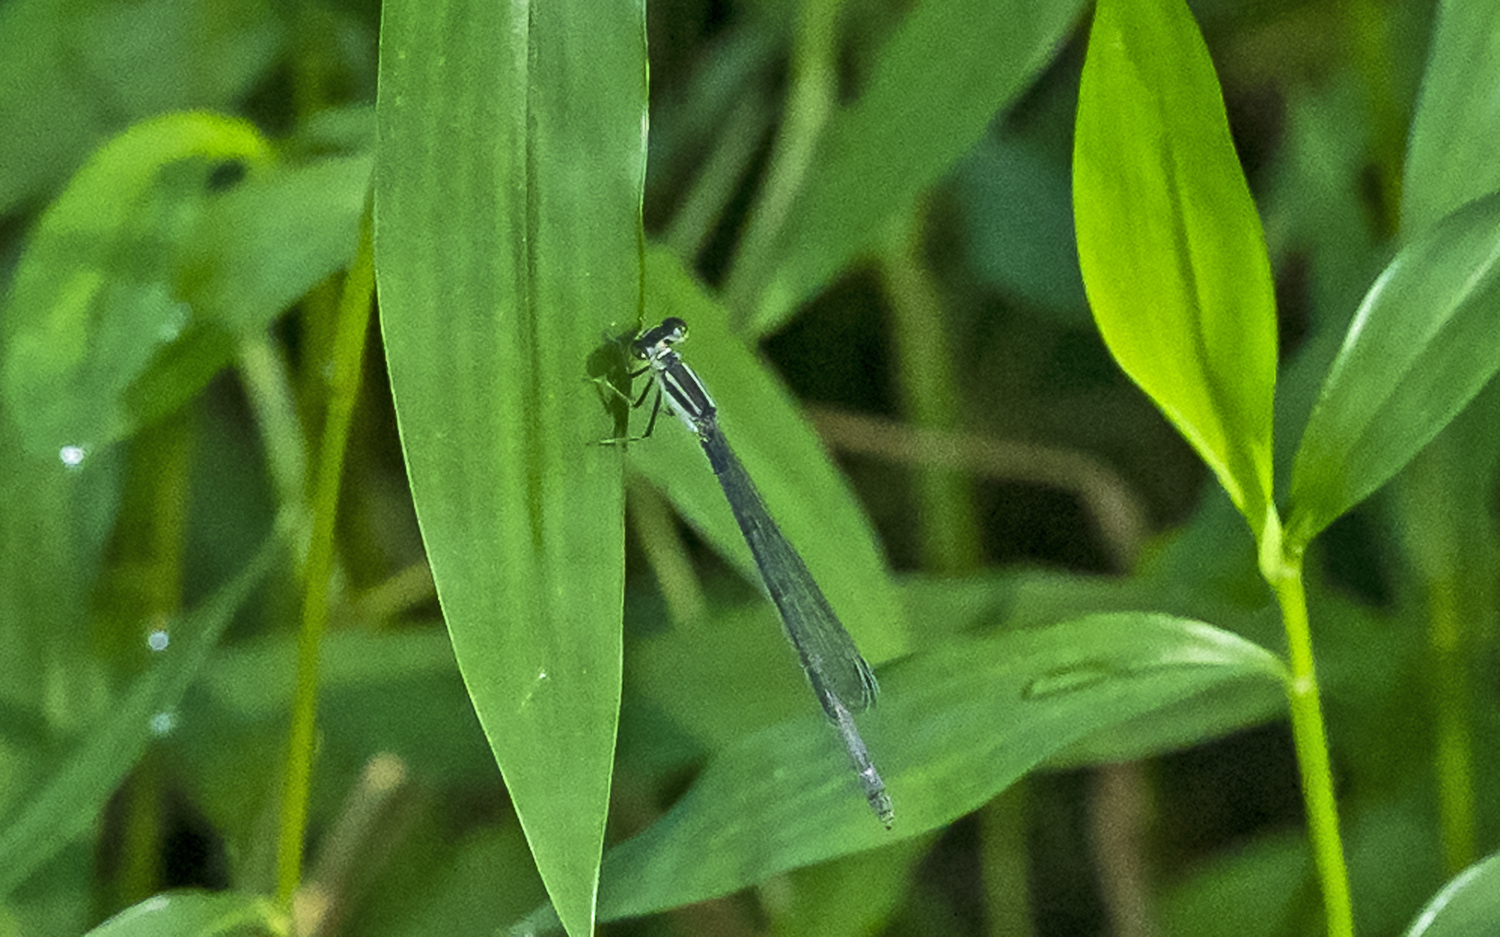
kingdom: Animalia
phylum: Arthropoda
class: Insecta
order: Odonata
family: Coenagrionidae
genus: Ischnura
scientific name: Ischnura verticalis
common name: Eastern forktail
